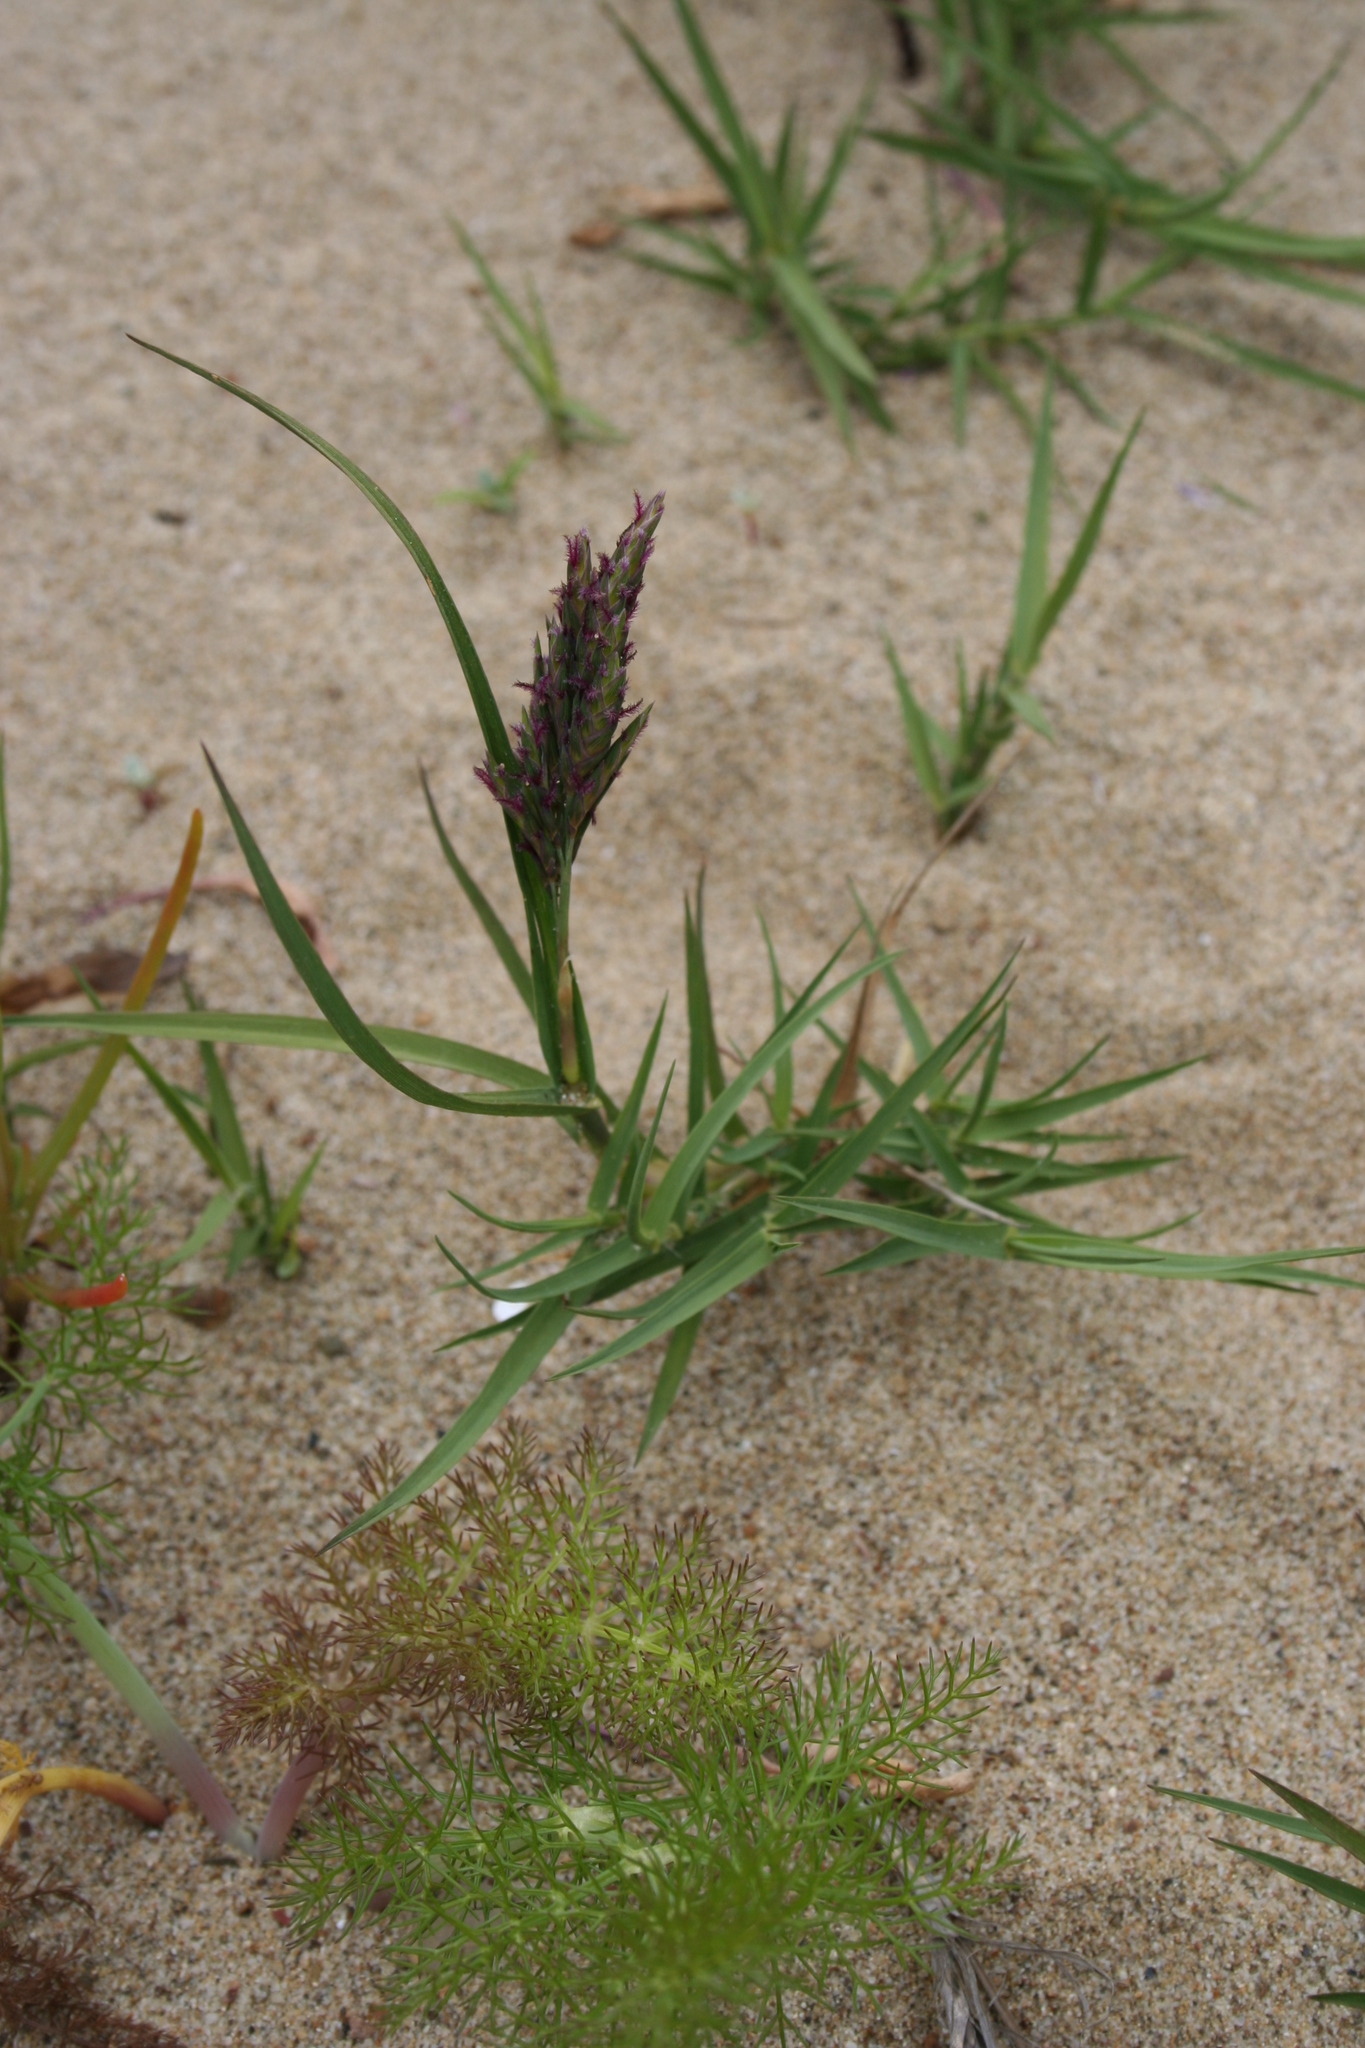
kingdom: Plantae
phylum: Tracheophyta
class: Liliopsida
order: Poales
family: Poaceae
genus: Distichlis
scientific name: Distichlis spicata
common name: Saltgrass
